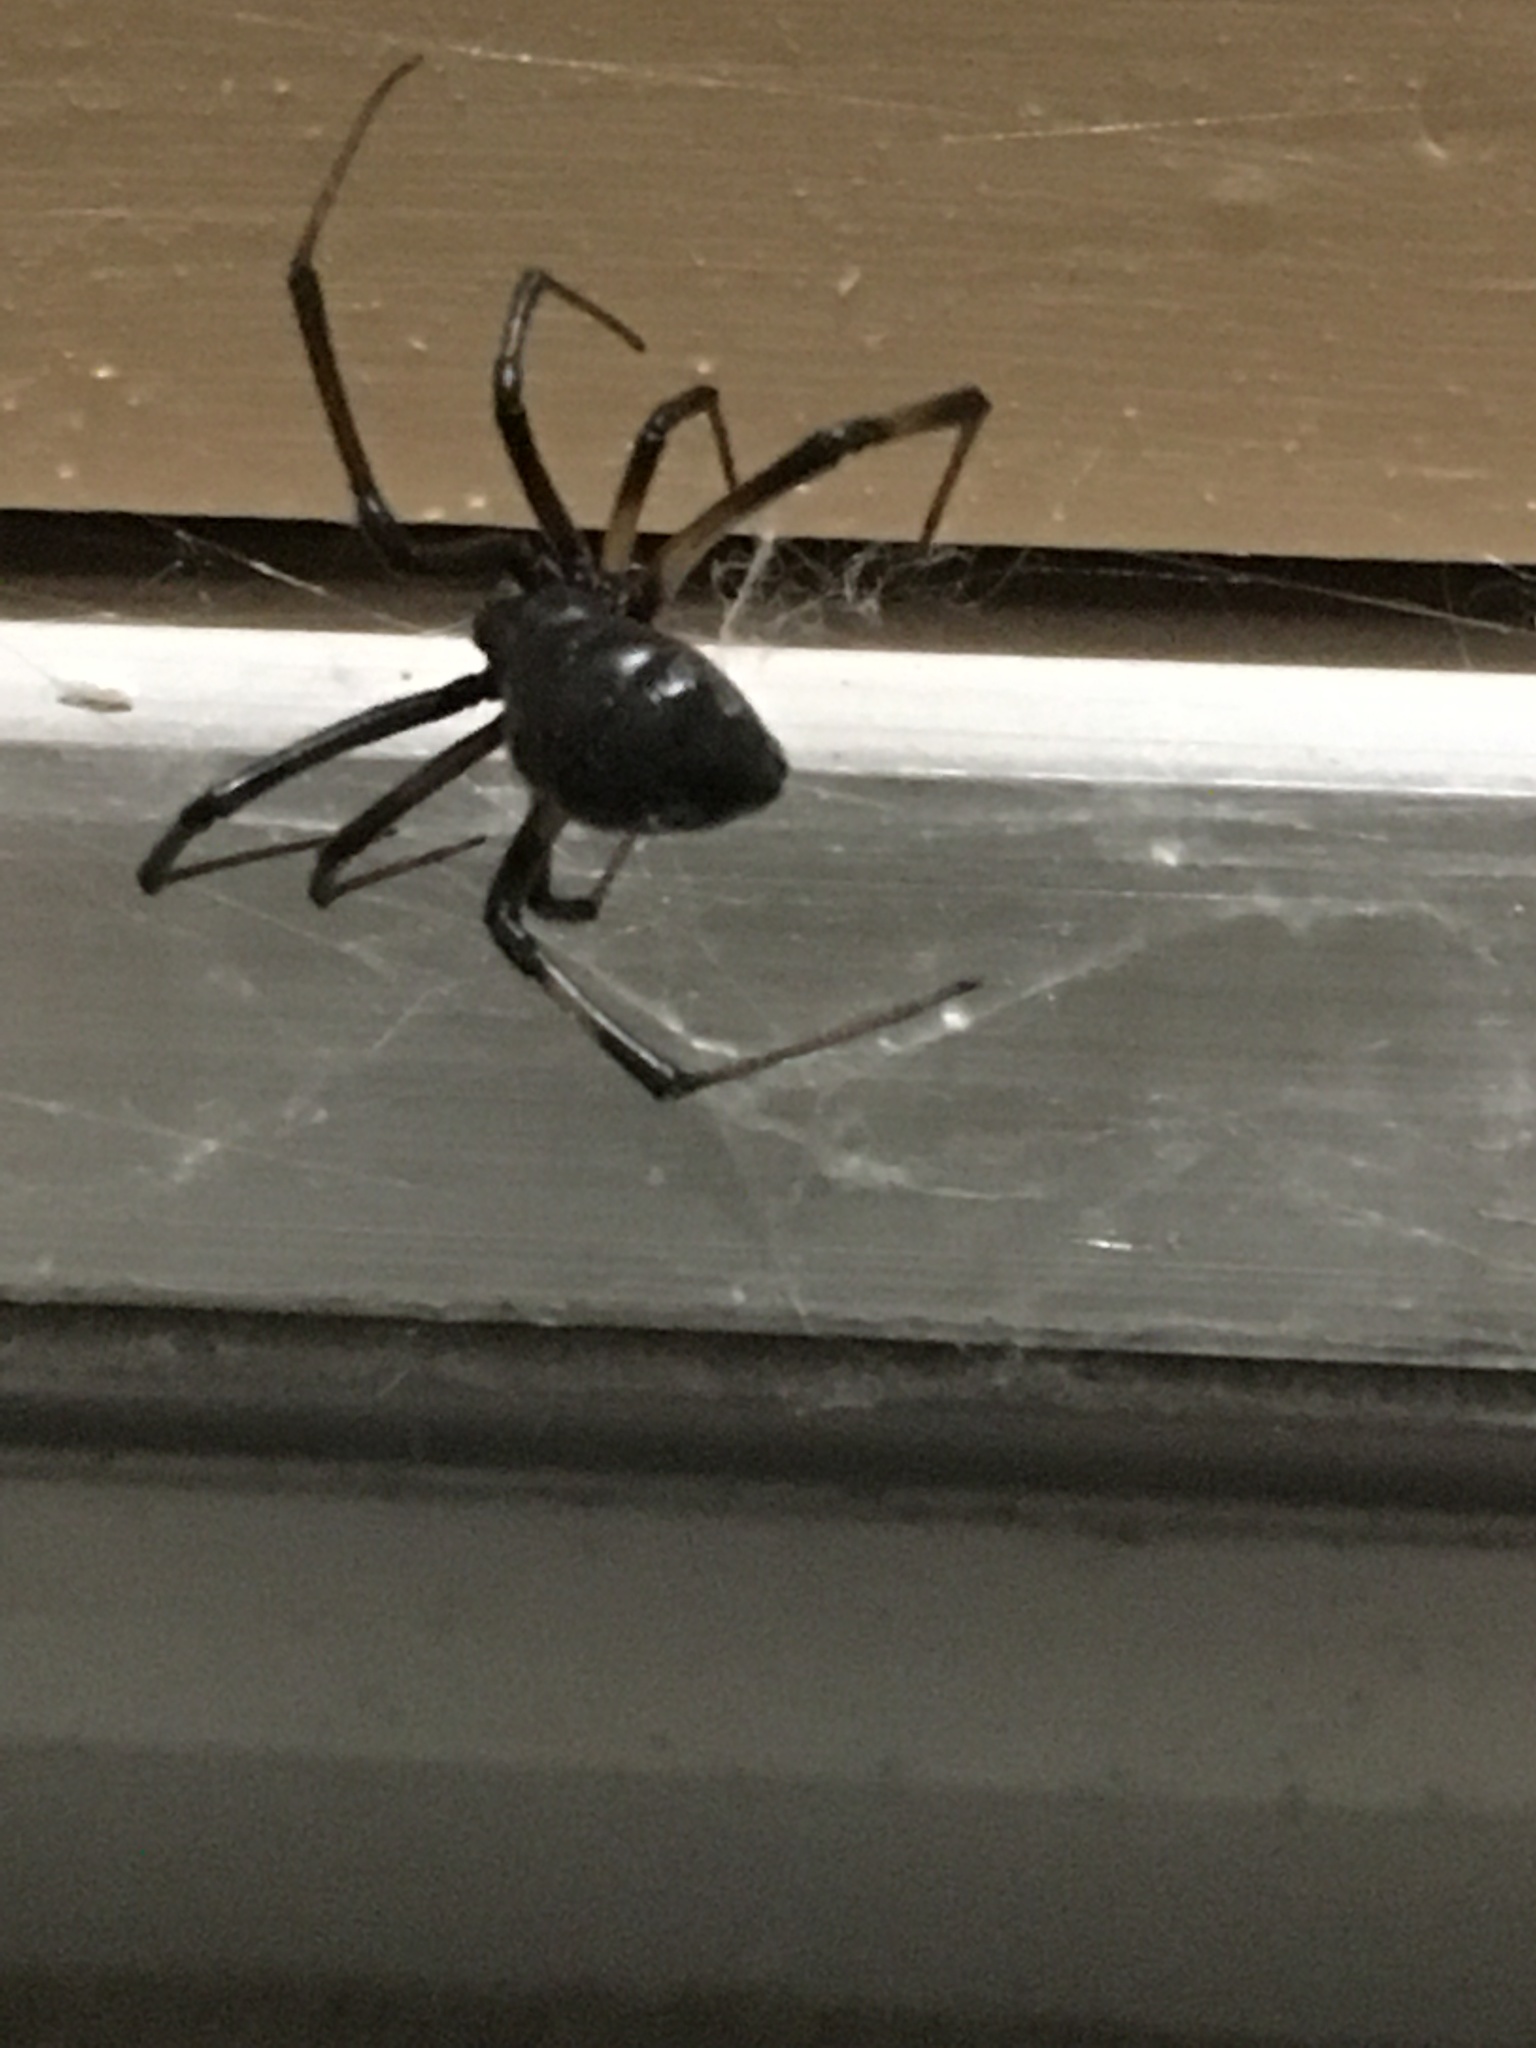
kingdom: Animalia
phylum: Arthropoda
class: Arachnida
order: Araneae
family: Theridiidae
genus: Latrodectus
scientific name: Latrodectus geometricus
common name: Brown widow spider
